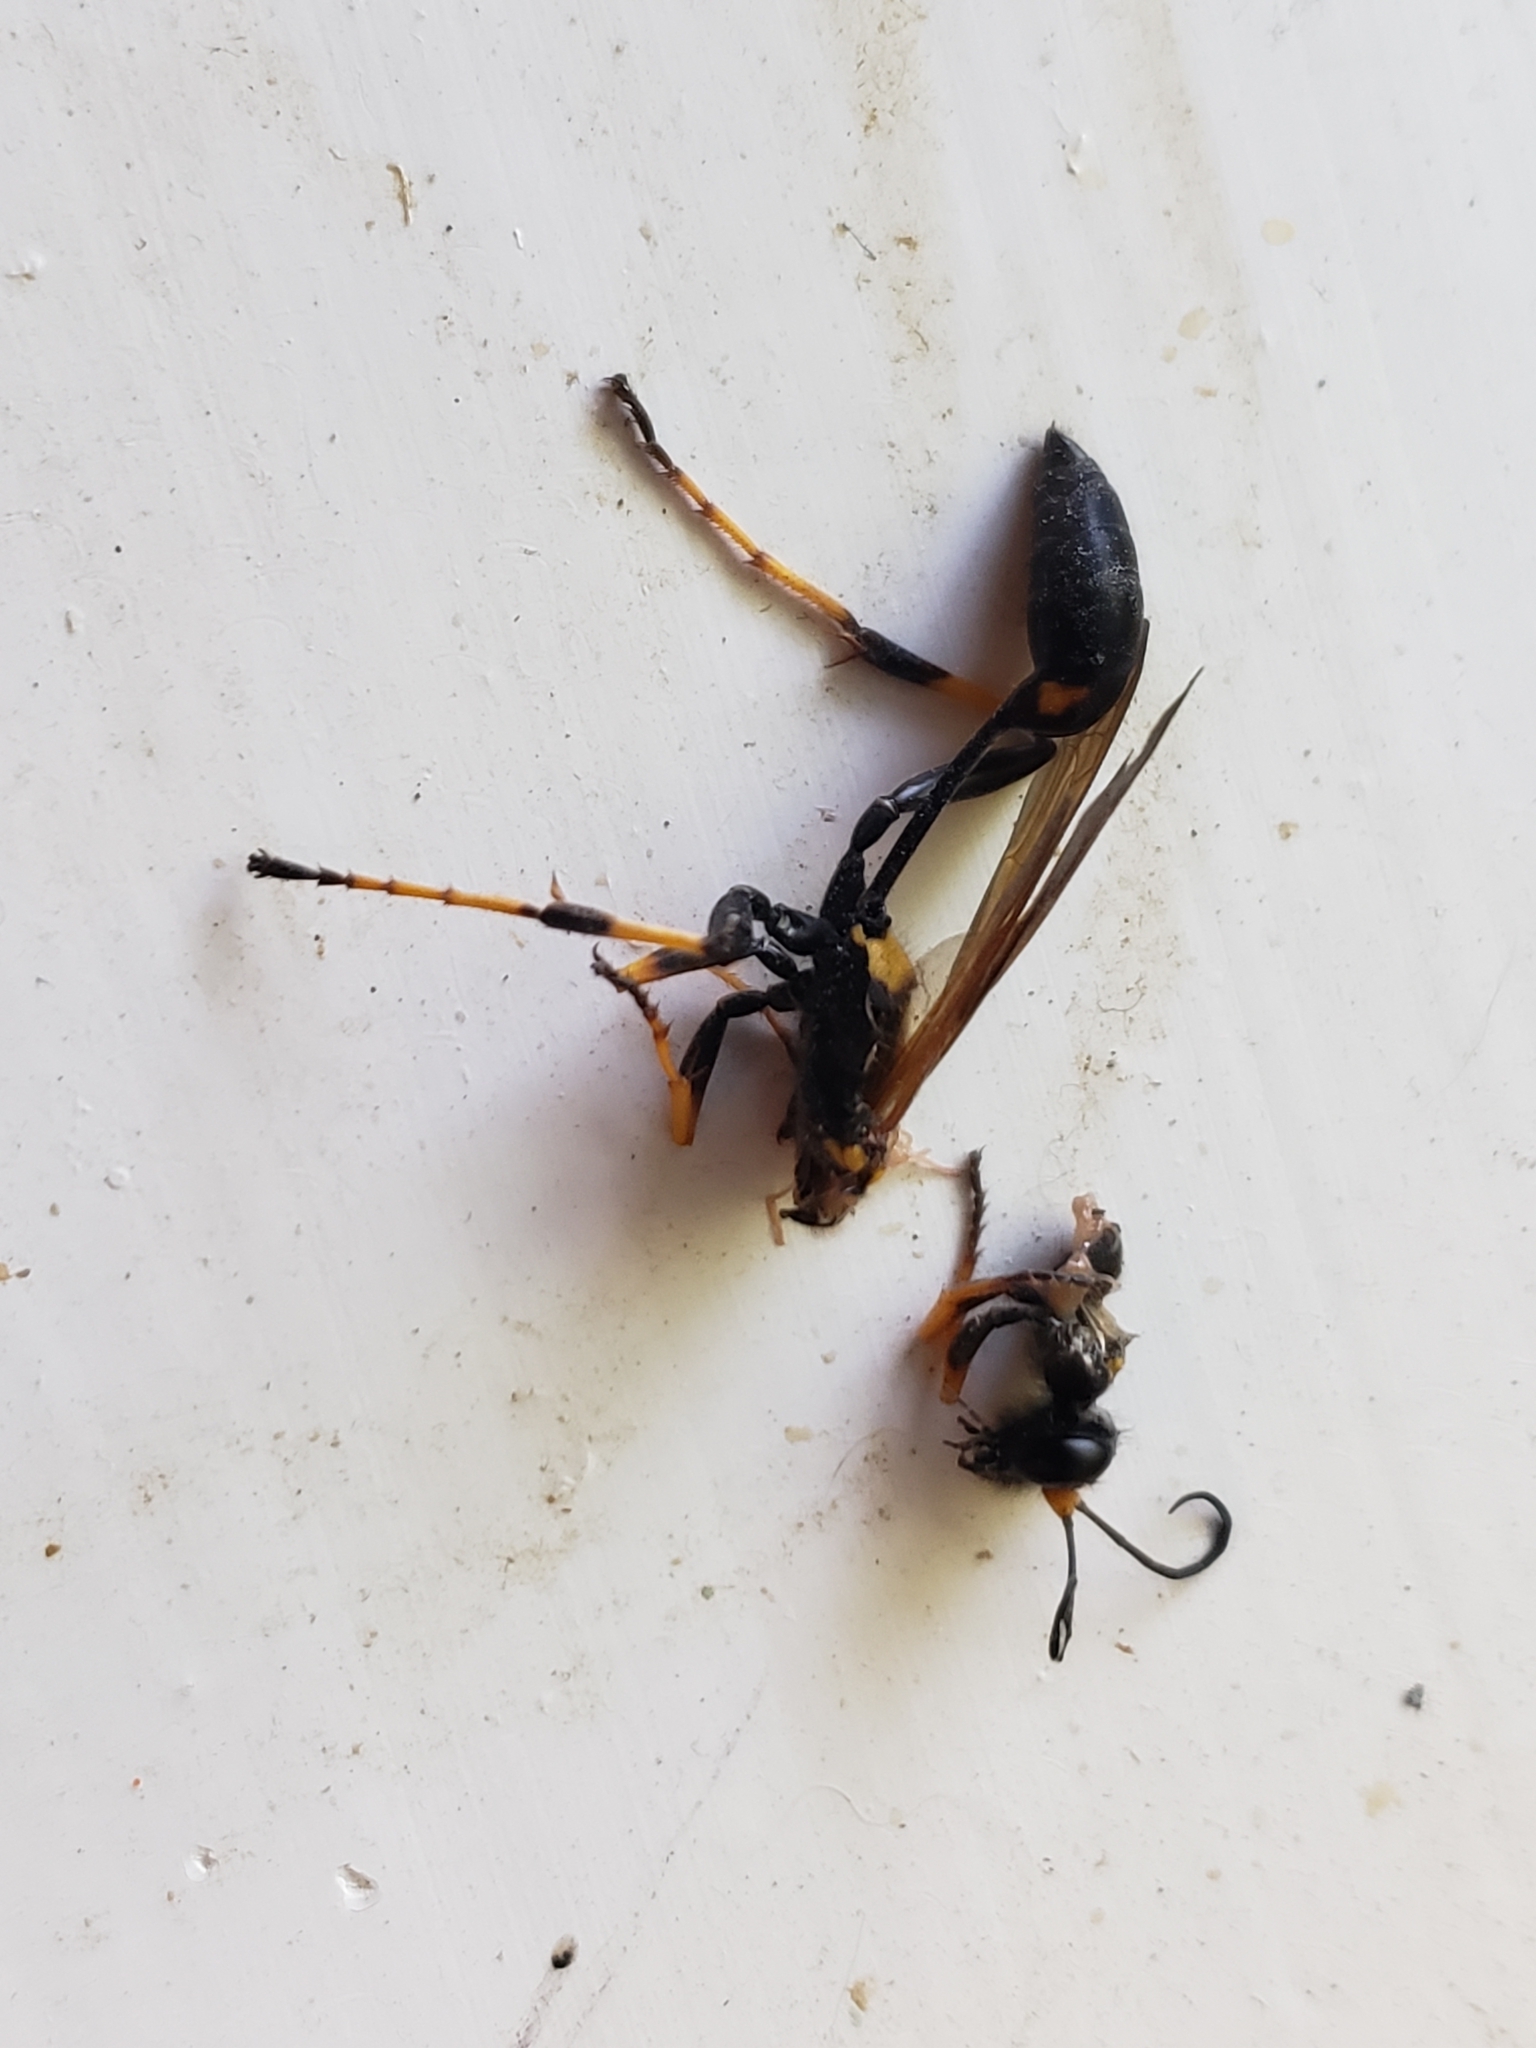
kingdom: Animalia
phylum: Arthropoda
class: Insecta
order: Hymenoptera
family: Sphecidae
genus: Sceliphron
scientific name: Sceliphron caementarium
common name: Mud dauber
